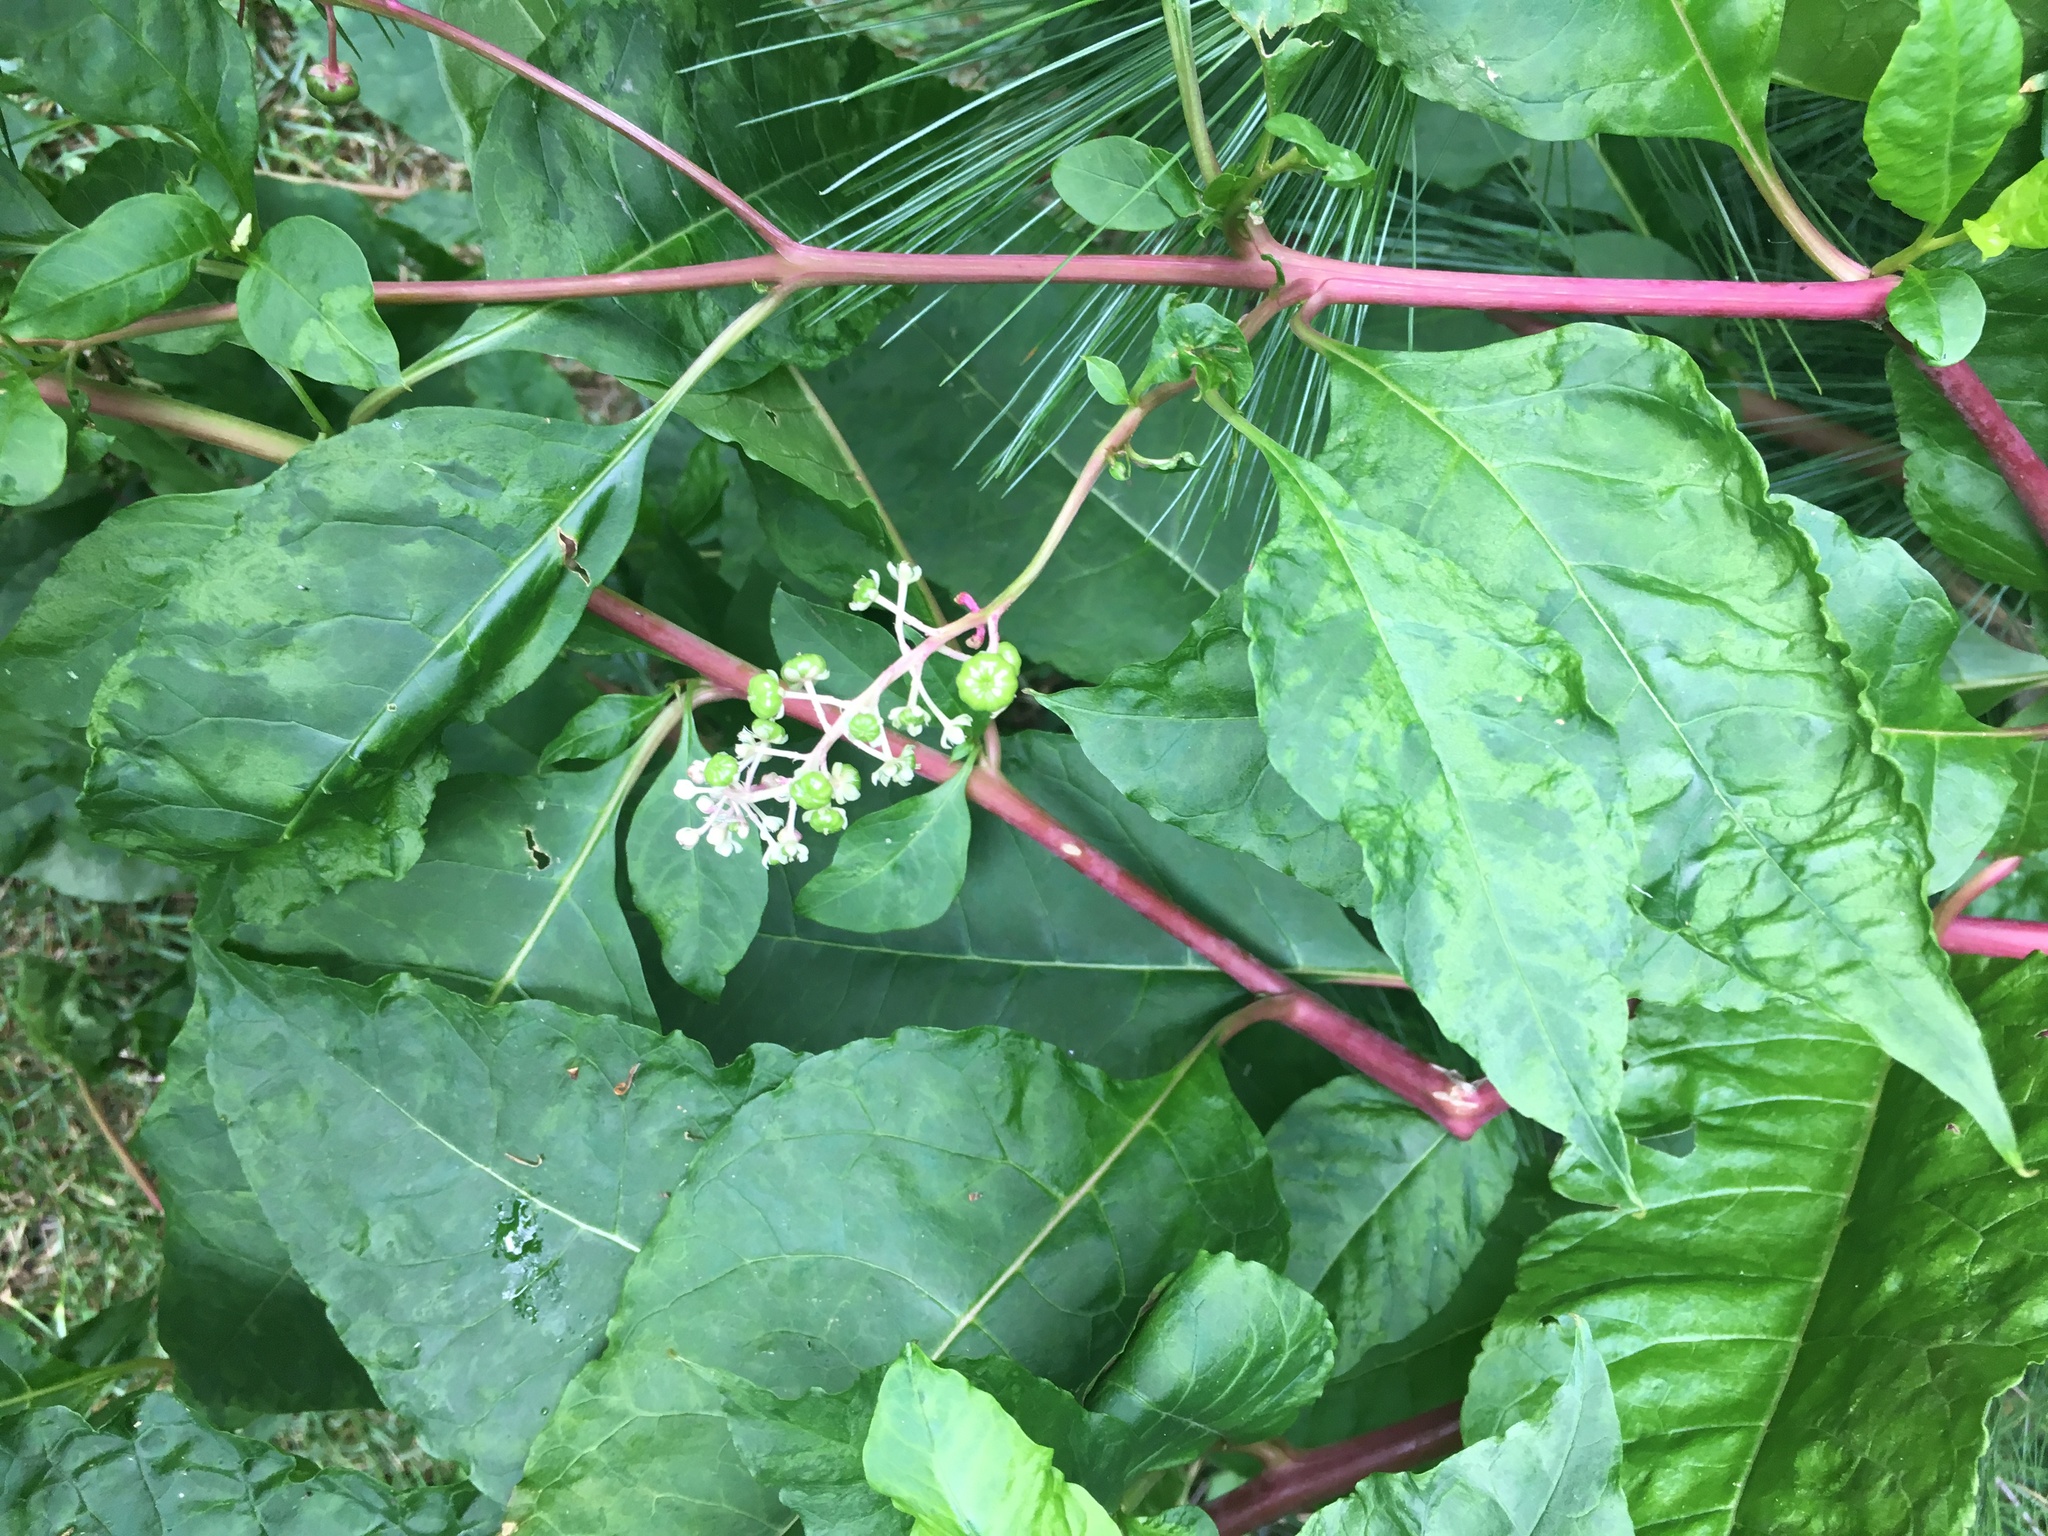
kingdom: Plantae
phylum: Tracheophyta
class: Magnoliopsida
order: Caryophyllales
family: Phytolaccaceae
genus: Phytolacca
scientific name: Phytolacca americana
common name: American pokeweed
